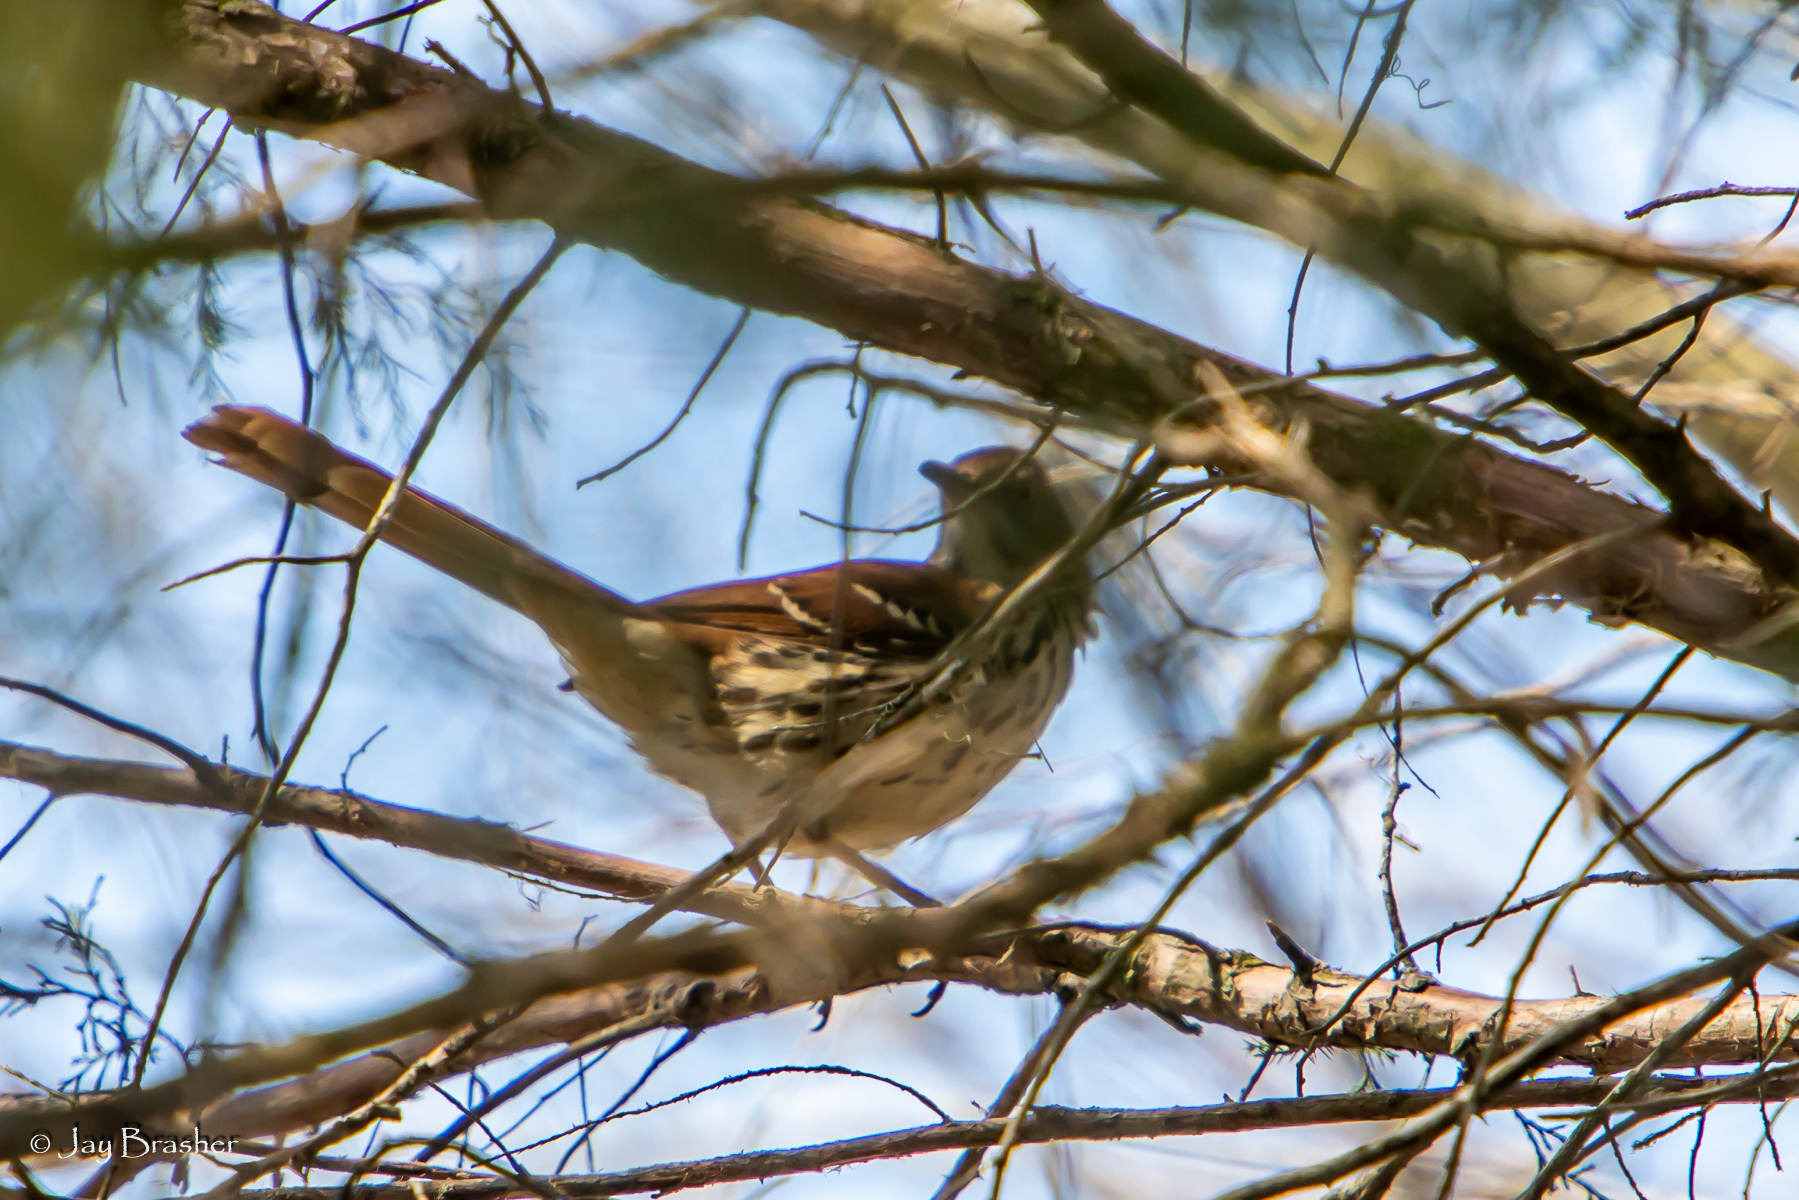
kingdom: Animalia
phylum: Chordata
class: Aves
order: Passeriformes
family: Mimidae
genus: Toxostoma
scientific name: Toxostoma rufum
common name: Brown thrasher
